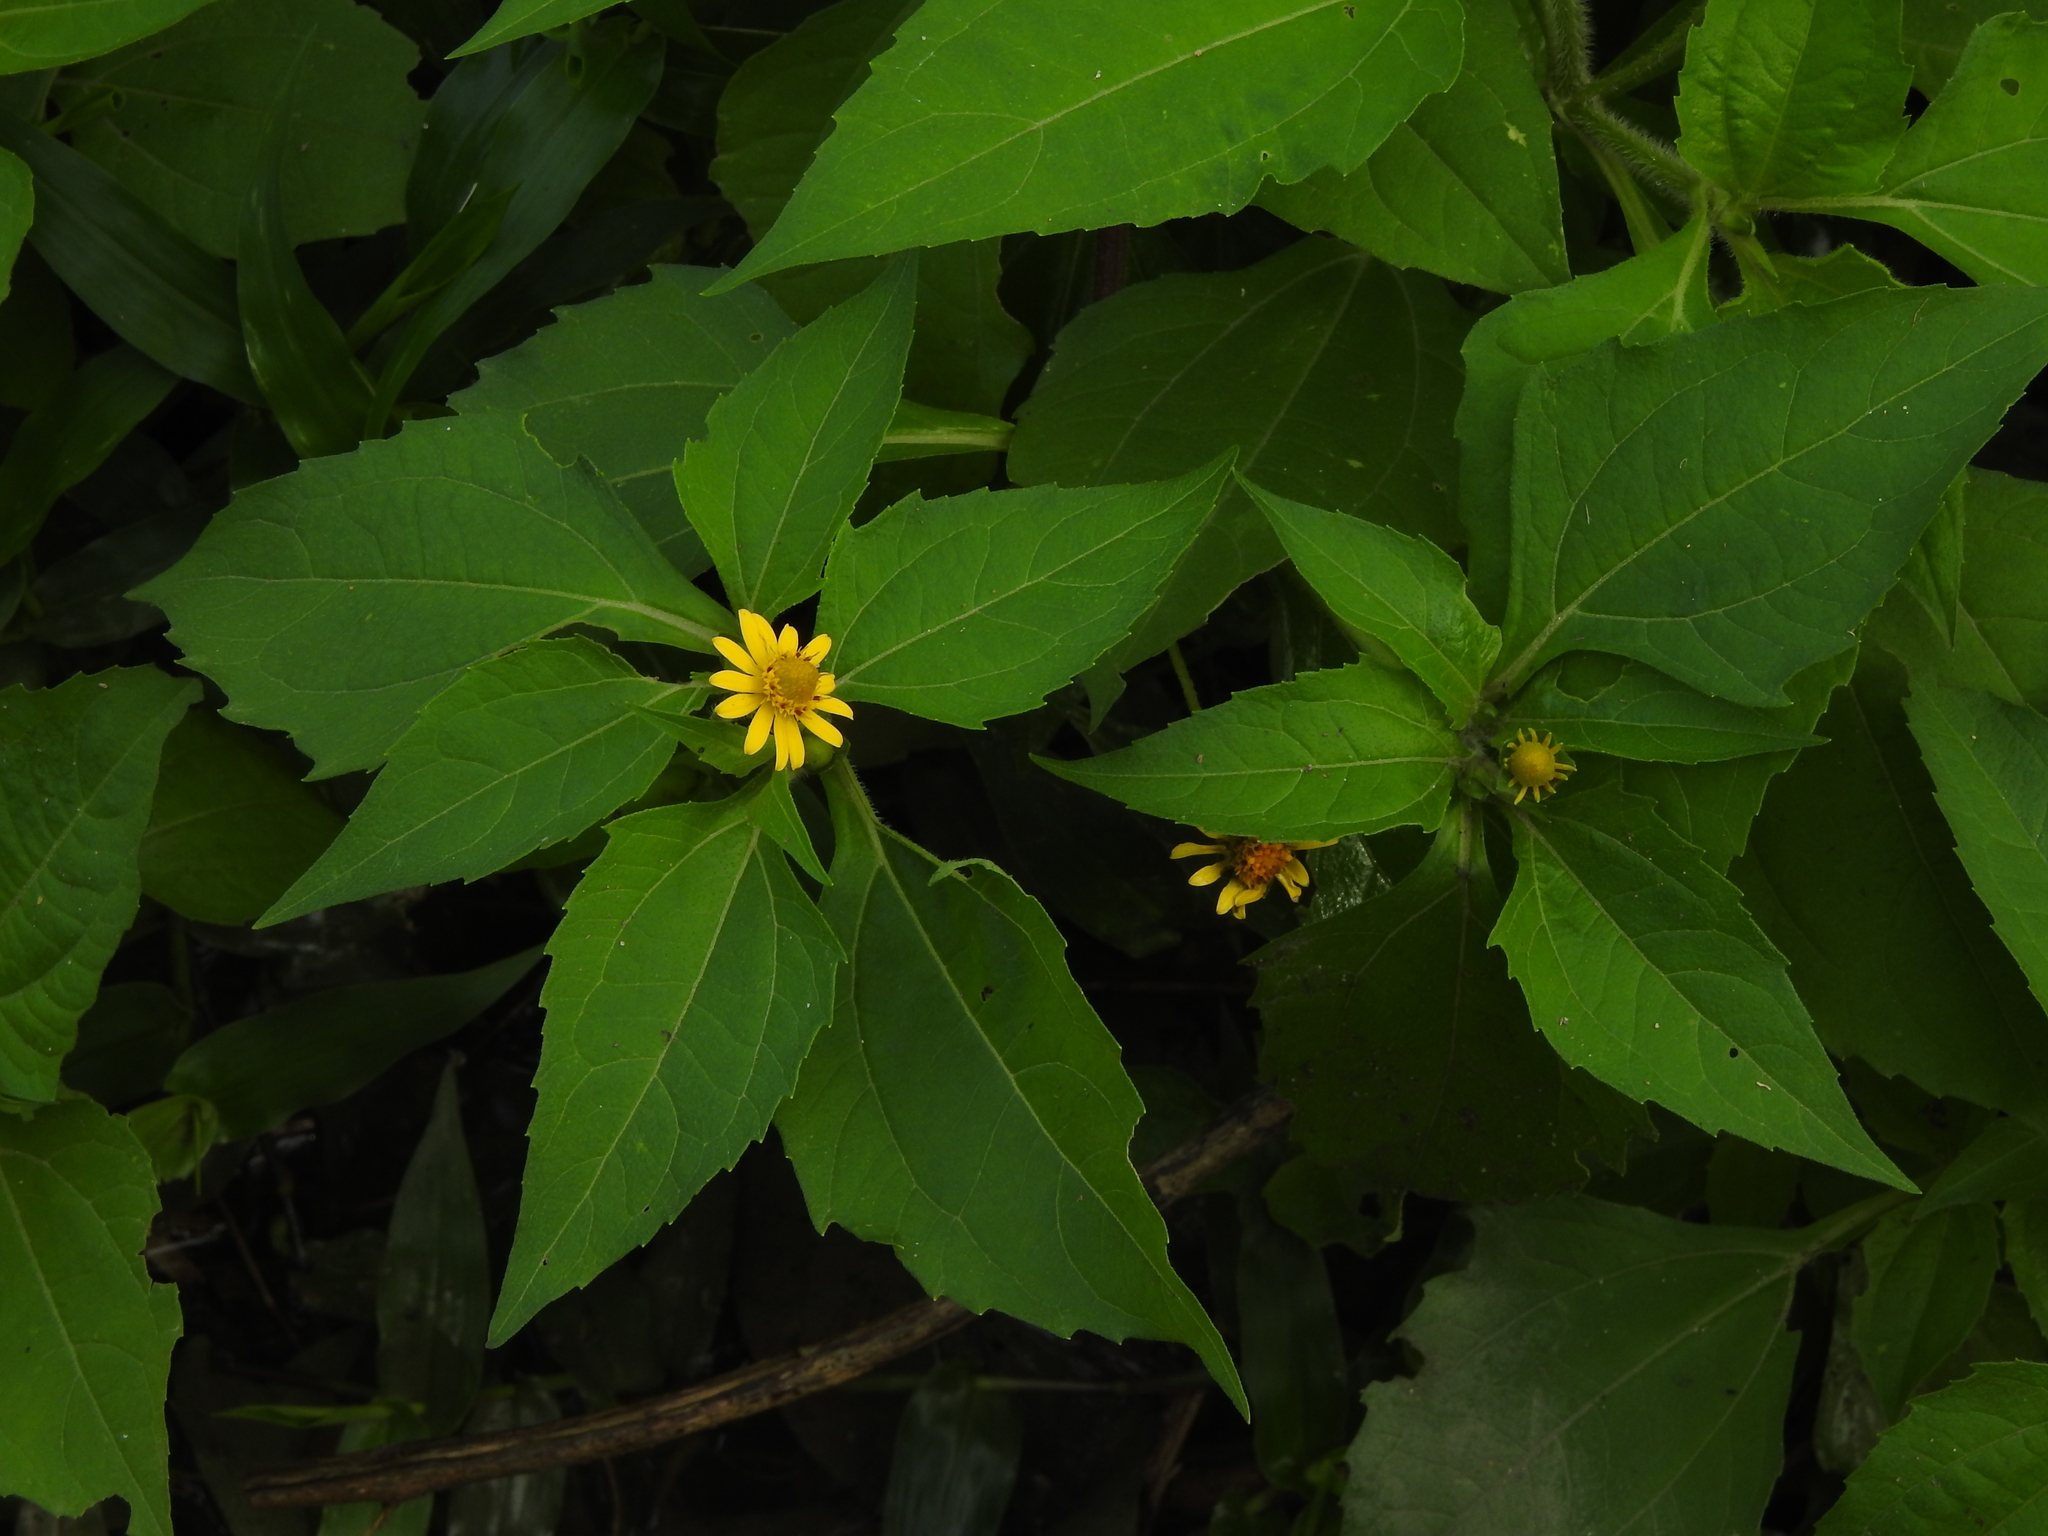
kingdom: Plantae
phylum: Tracheophyta
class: Magnoliopsida
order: Asterales
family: Asteraceae
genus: Melampodium
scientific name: Melampodium divaricatum
